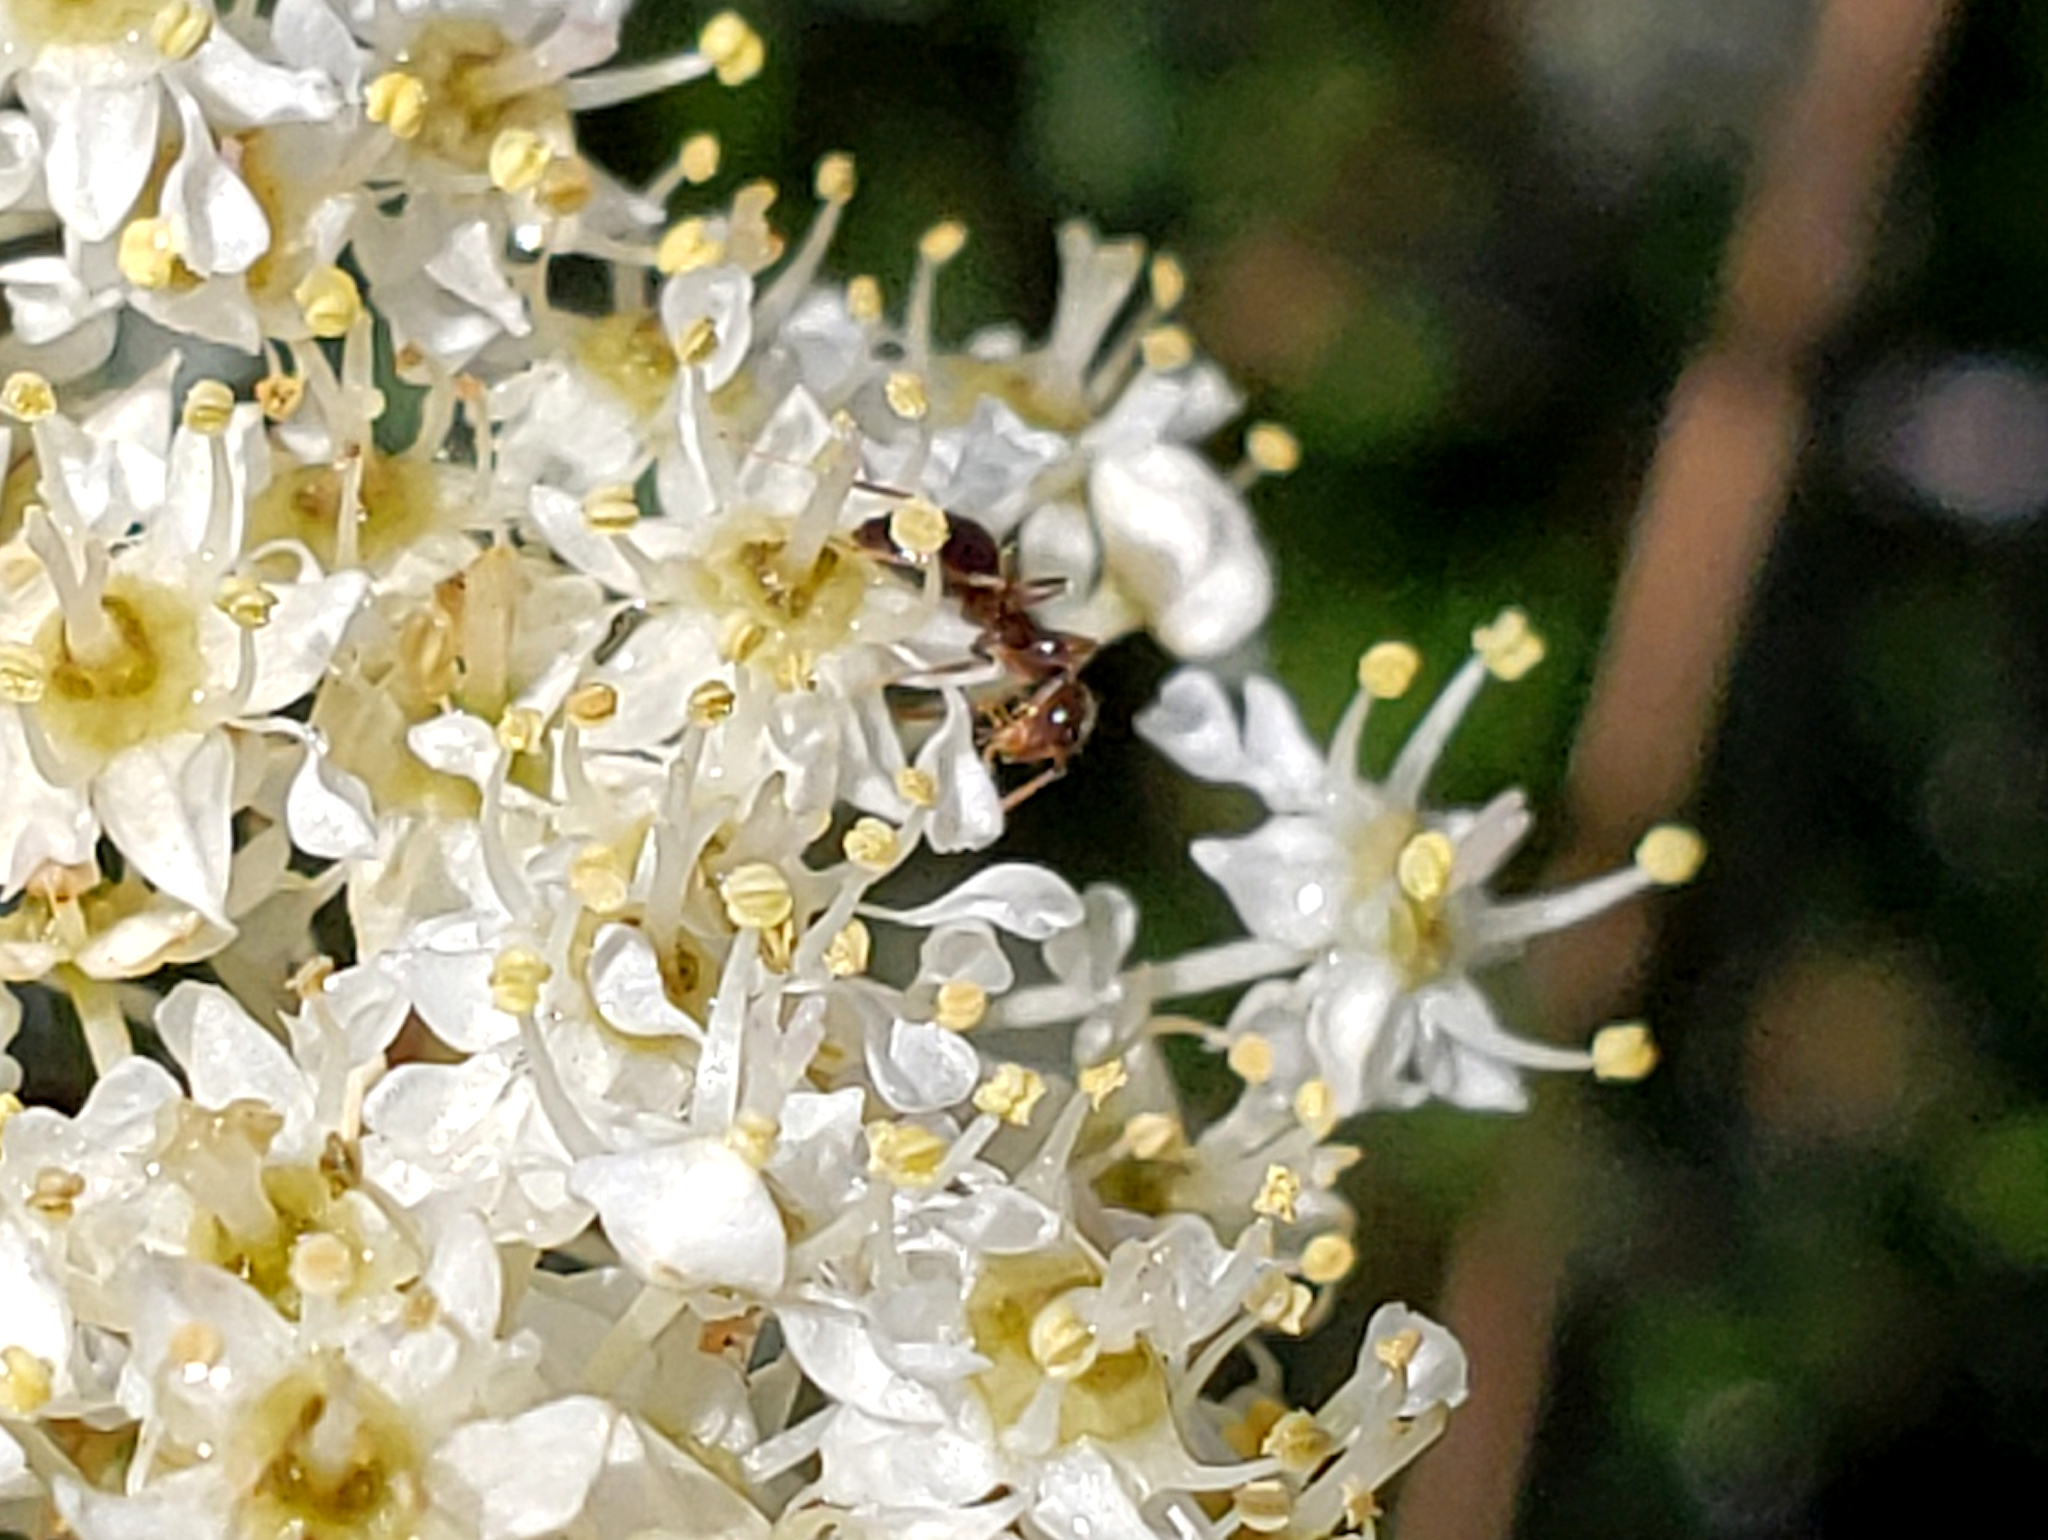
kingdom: Plantae
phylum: Tracheophyta
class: Magnoliopsida
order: Rosales
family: Rhamnaceae
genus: Ceanothus
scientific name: Ceanothus cuneatus
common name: Cuneate ceanothus
